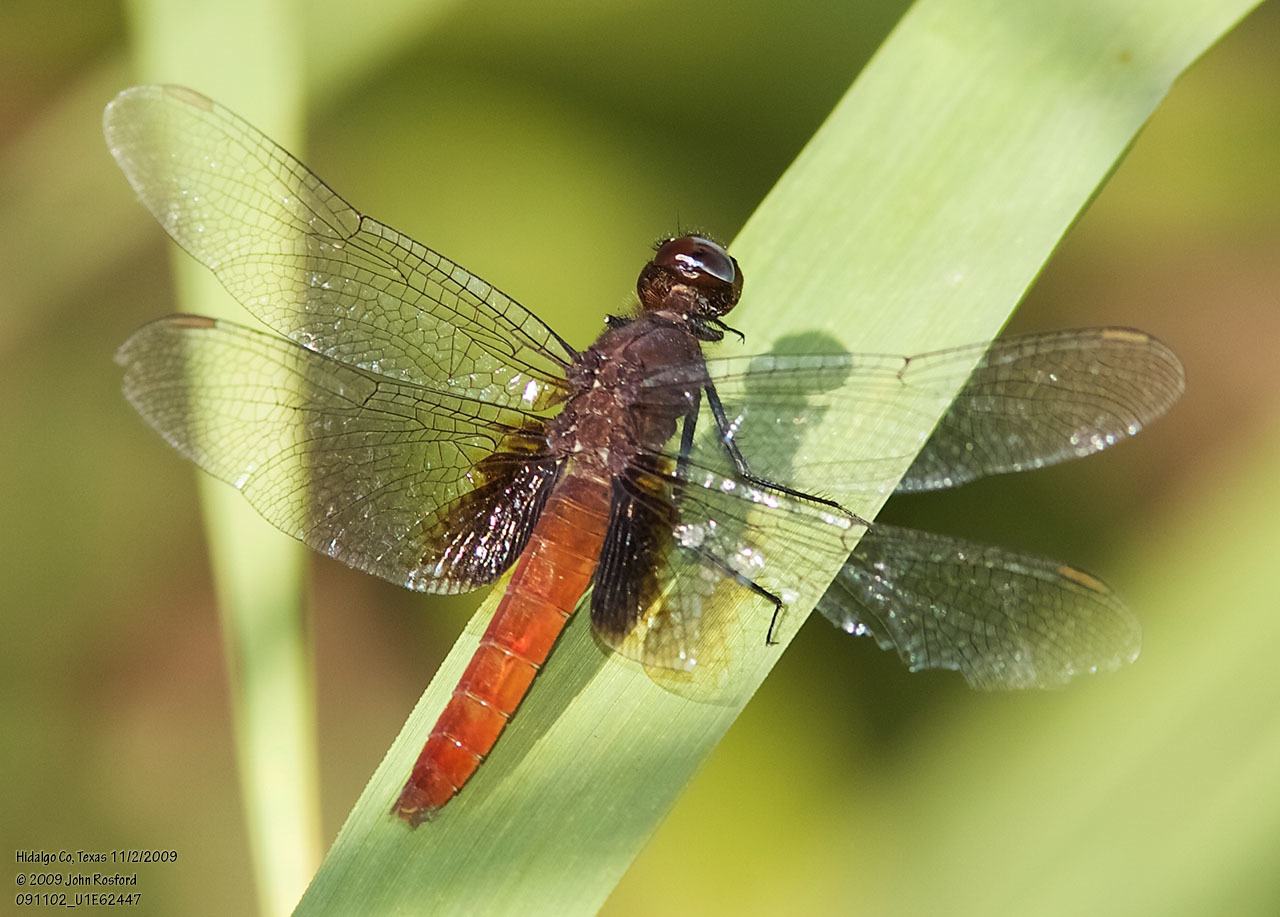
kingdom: Animalia
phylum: Arthropoda
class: Insecta
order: Odonata
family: Libellulidae
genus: Planiplax
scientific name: Planiplax sanguiniventris
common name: Mexican scarlet-tail
